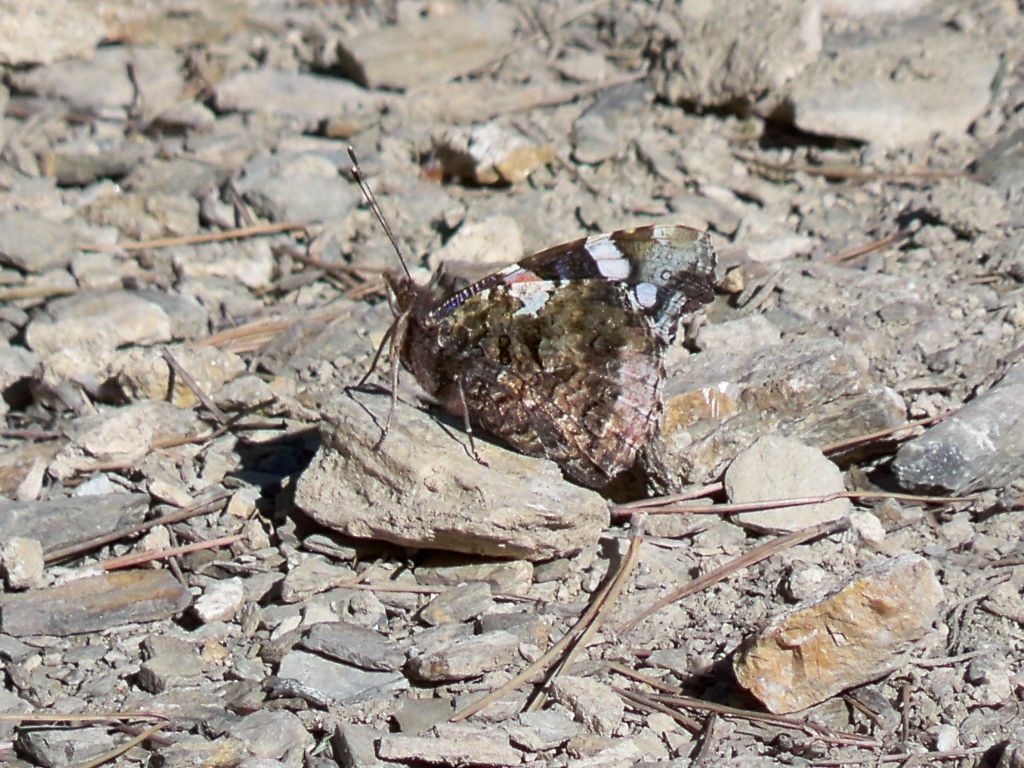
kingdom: Animalia
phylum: Arthropoda
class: Insecta
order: Lepidoptera
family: Nymphalidae
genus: Vanessa
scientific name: Vanessa atalanta
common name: Red admiral
